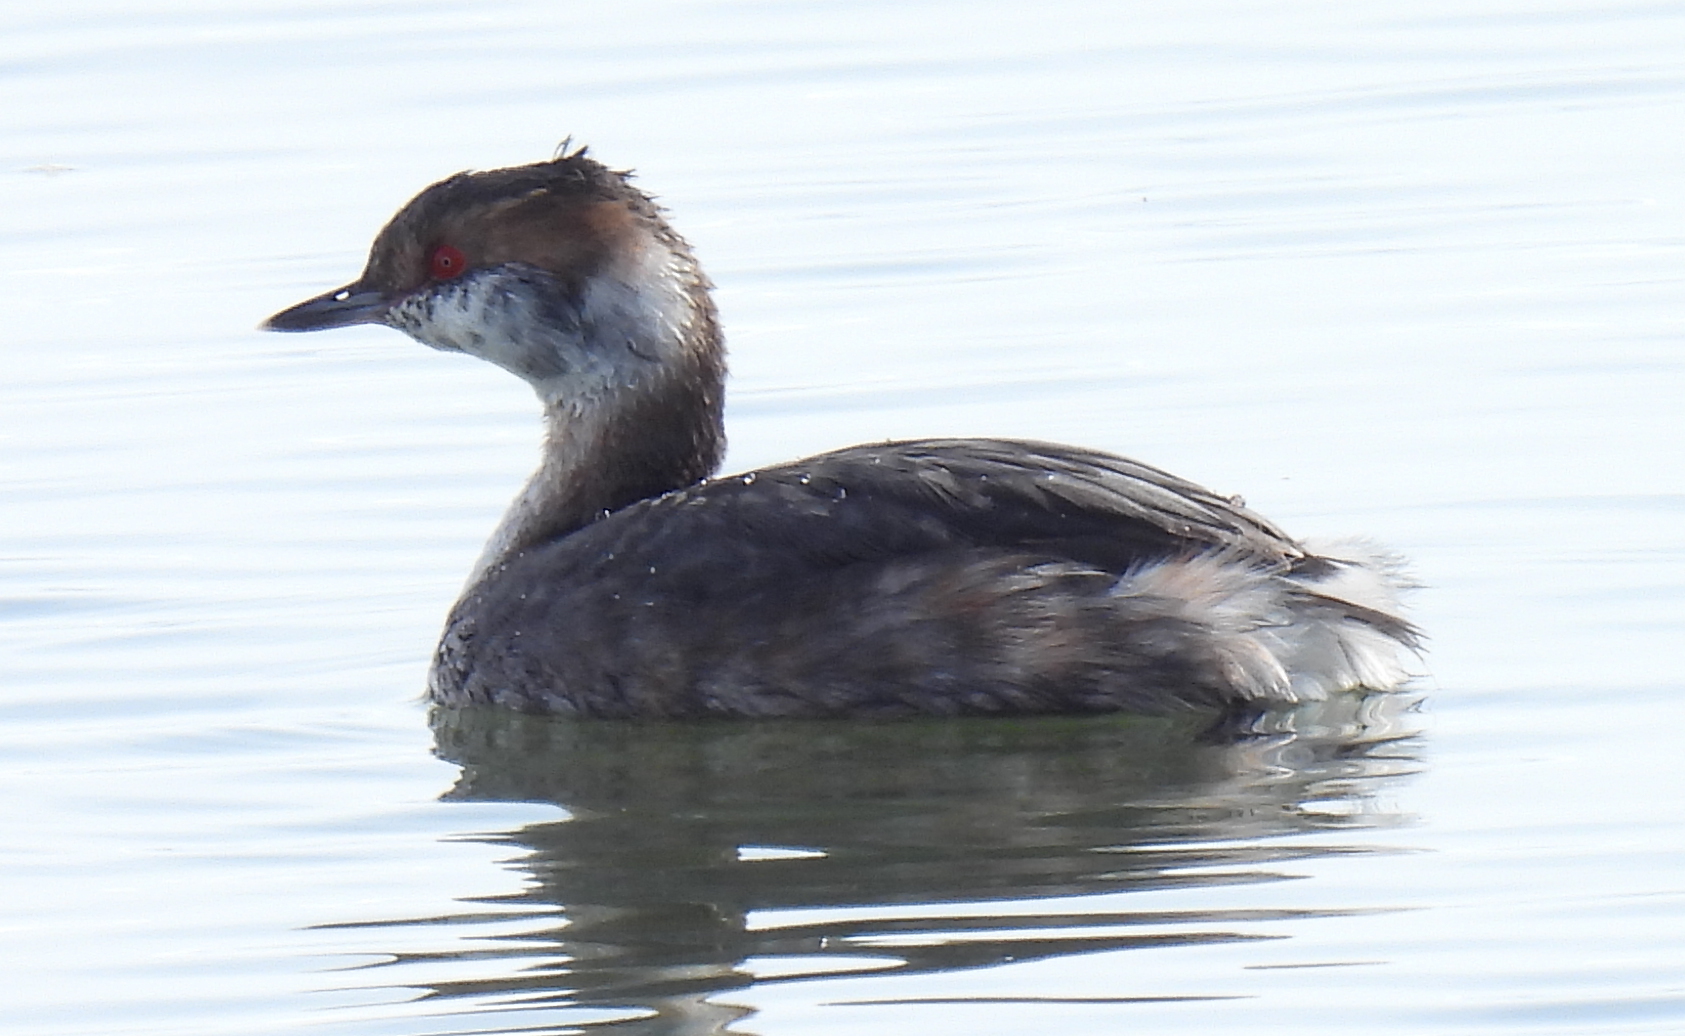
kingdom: Animalia
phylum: Chordata
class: Aves
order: Podicipediformes
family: Podicipedidae
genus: Podiceps
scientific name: Podiceps auritus
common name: Horned grebe
